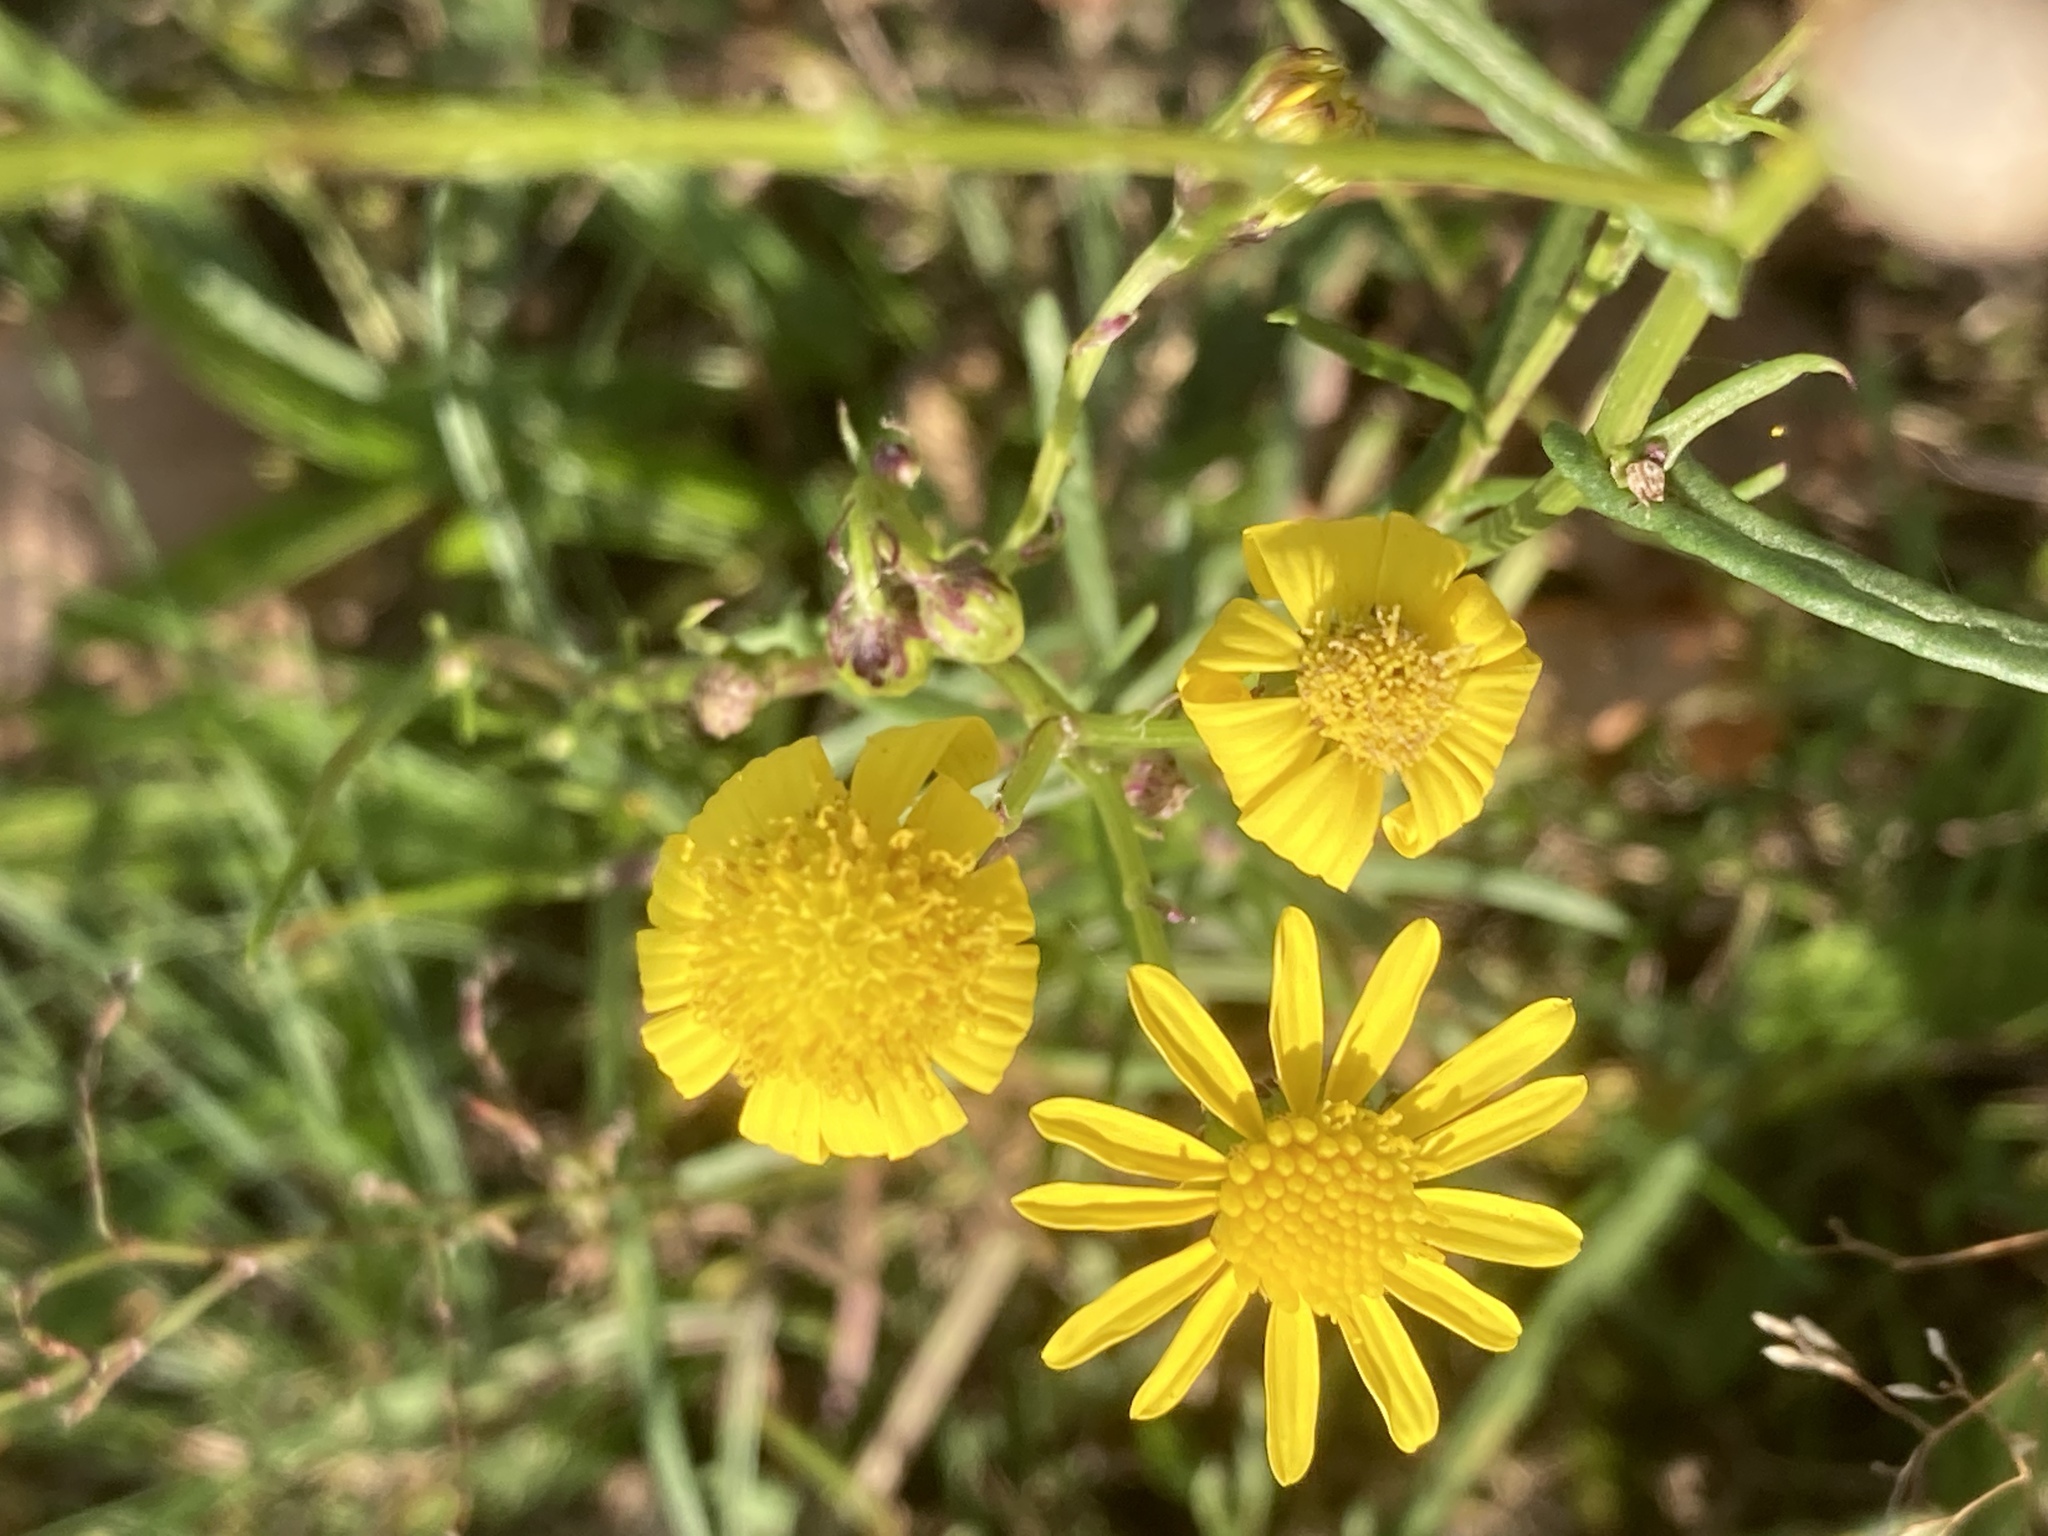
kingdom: Plantae
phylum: Tracheophyta
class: Magnoliopsida
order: Asterales
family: Asteraceae
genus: Senecio
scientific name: Senecio inaequidens
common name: Narrow-leaved ragwort
